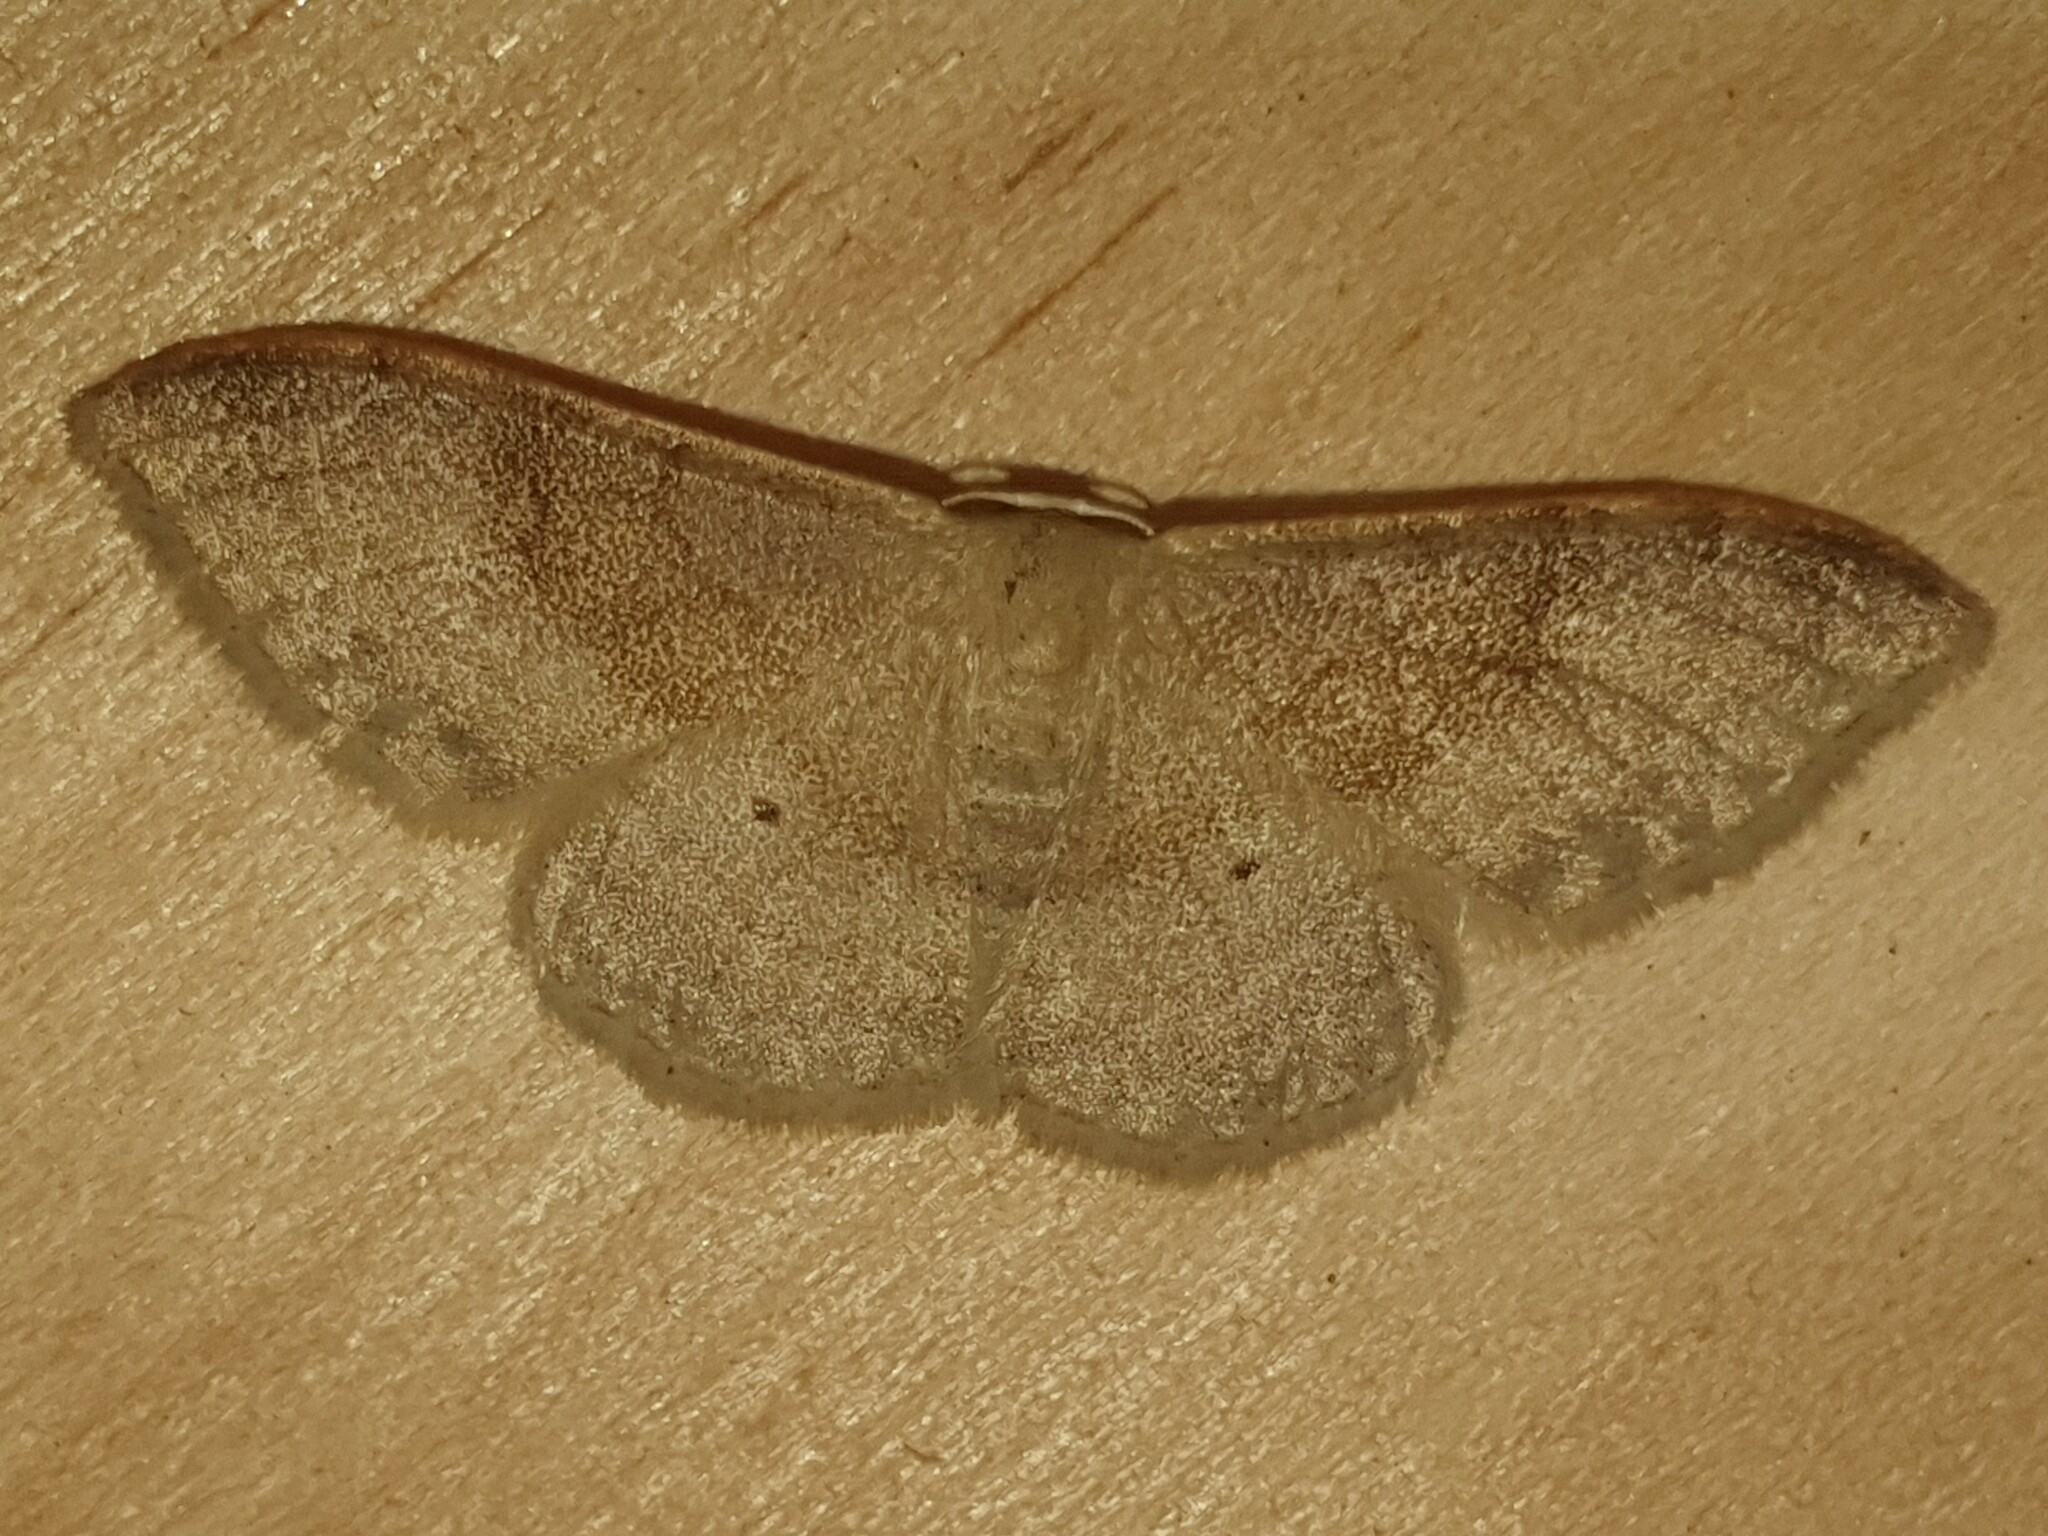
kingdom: Animalia
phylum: Arthropoda
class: Insecta
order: Lepidoptera
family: Geometridae
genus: Idaea
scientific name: Idaea degeneraria
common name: Portland ribbon wave
